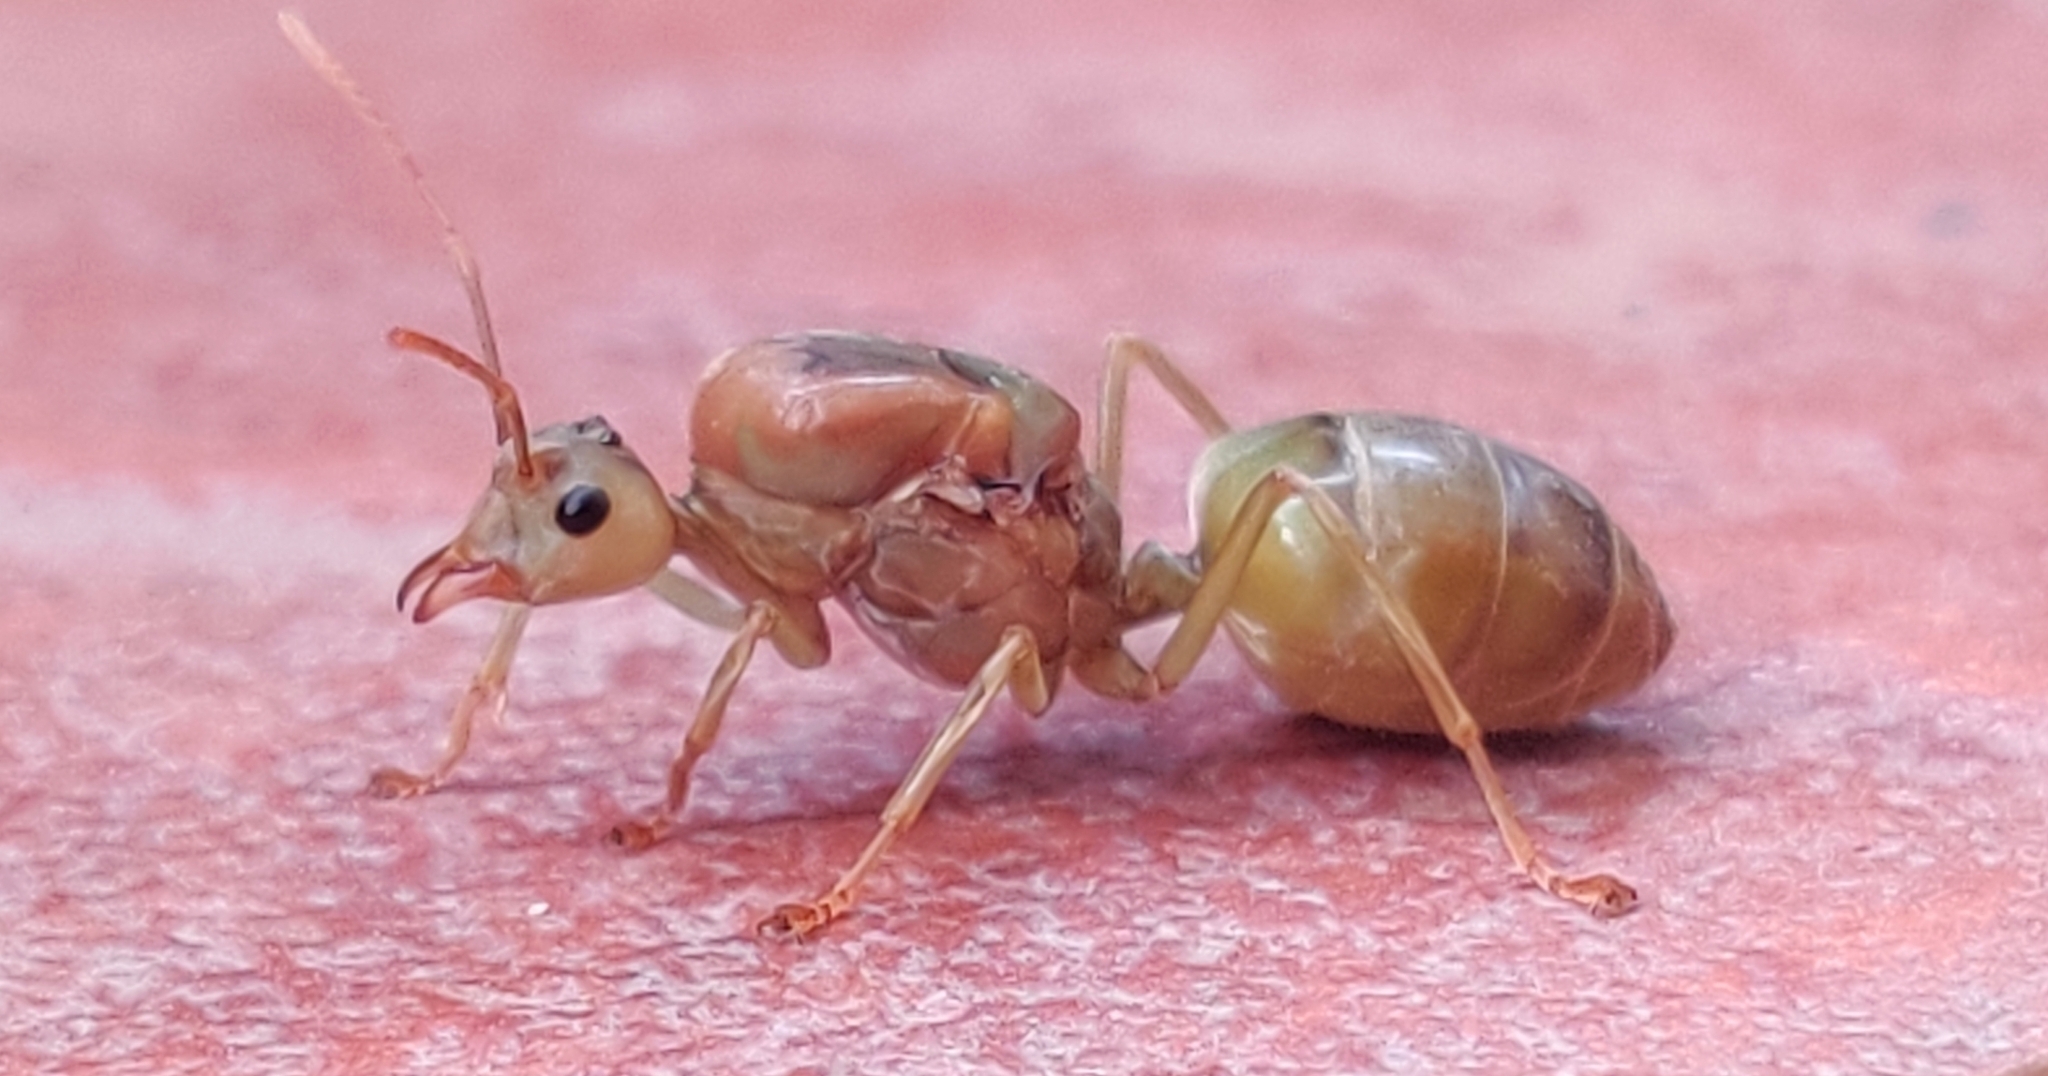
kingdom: Animalia
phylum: Arthropoda
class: Insecta
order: Hymenoptera
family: Formicidae
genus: Oecophylla
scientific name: Oecophylla smaragdina
